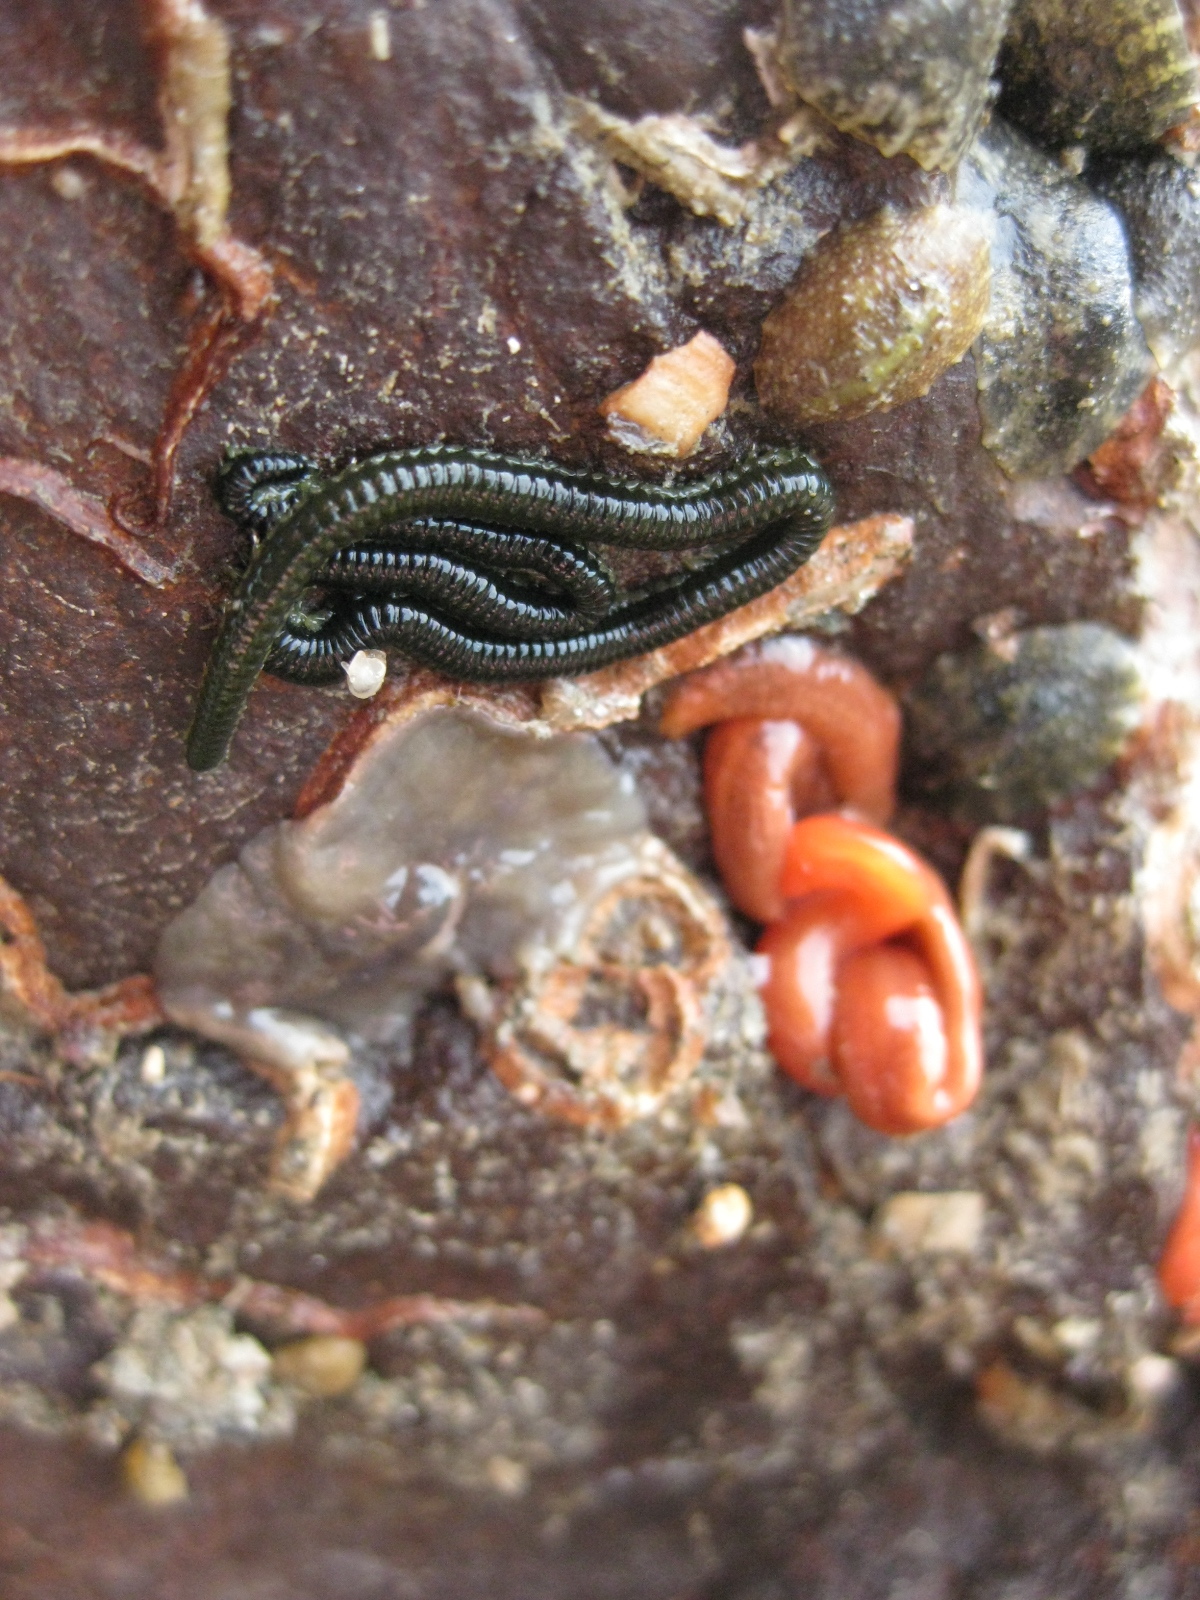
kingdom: Animalia
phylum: Annelida
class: Polychaeta
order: Phyllodocida
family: Phyllodocidae
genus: Eulalia
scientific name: Eulalia microphylla
